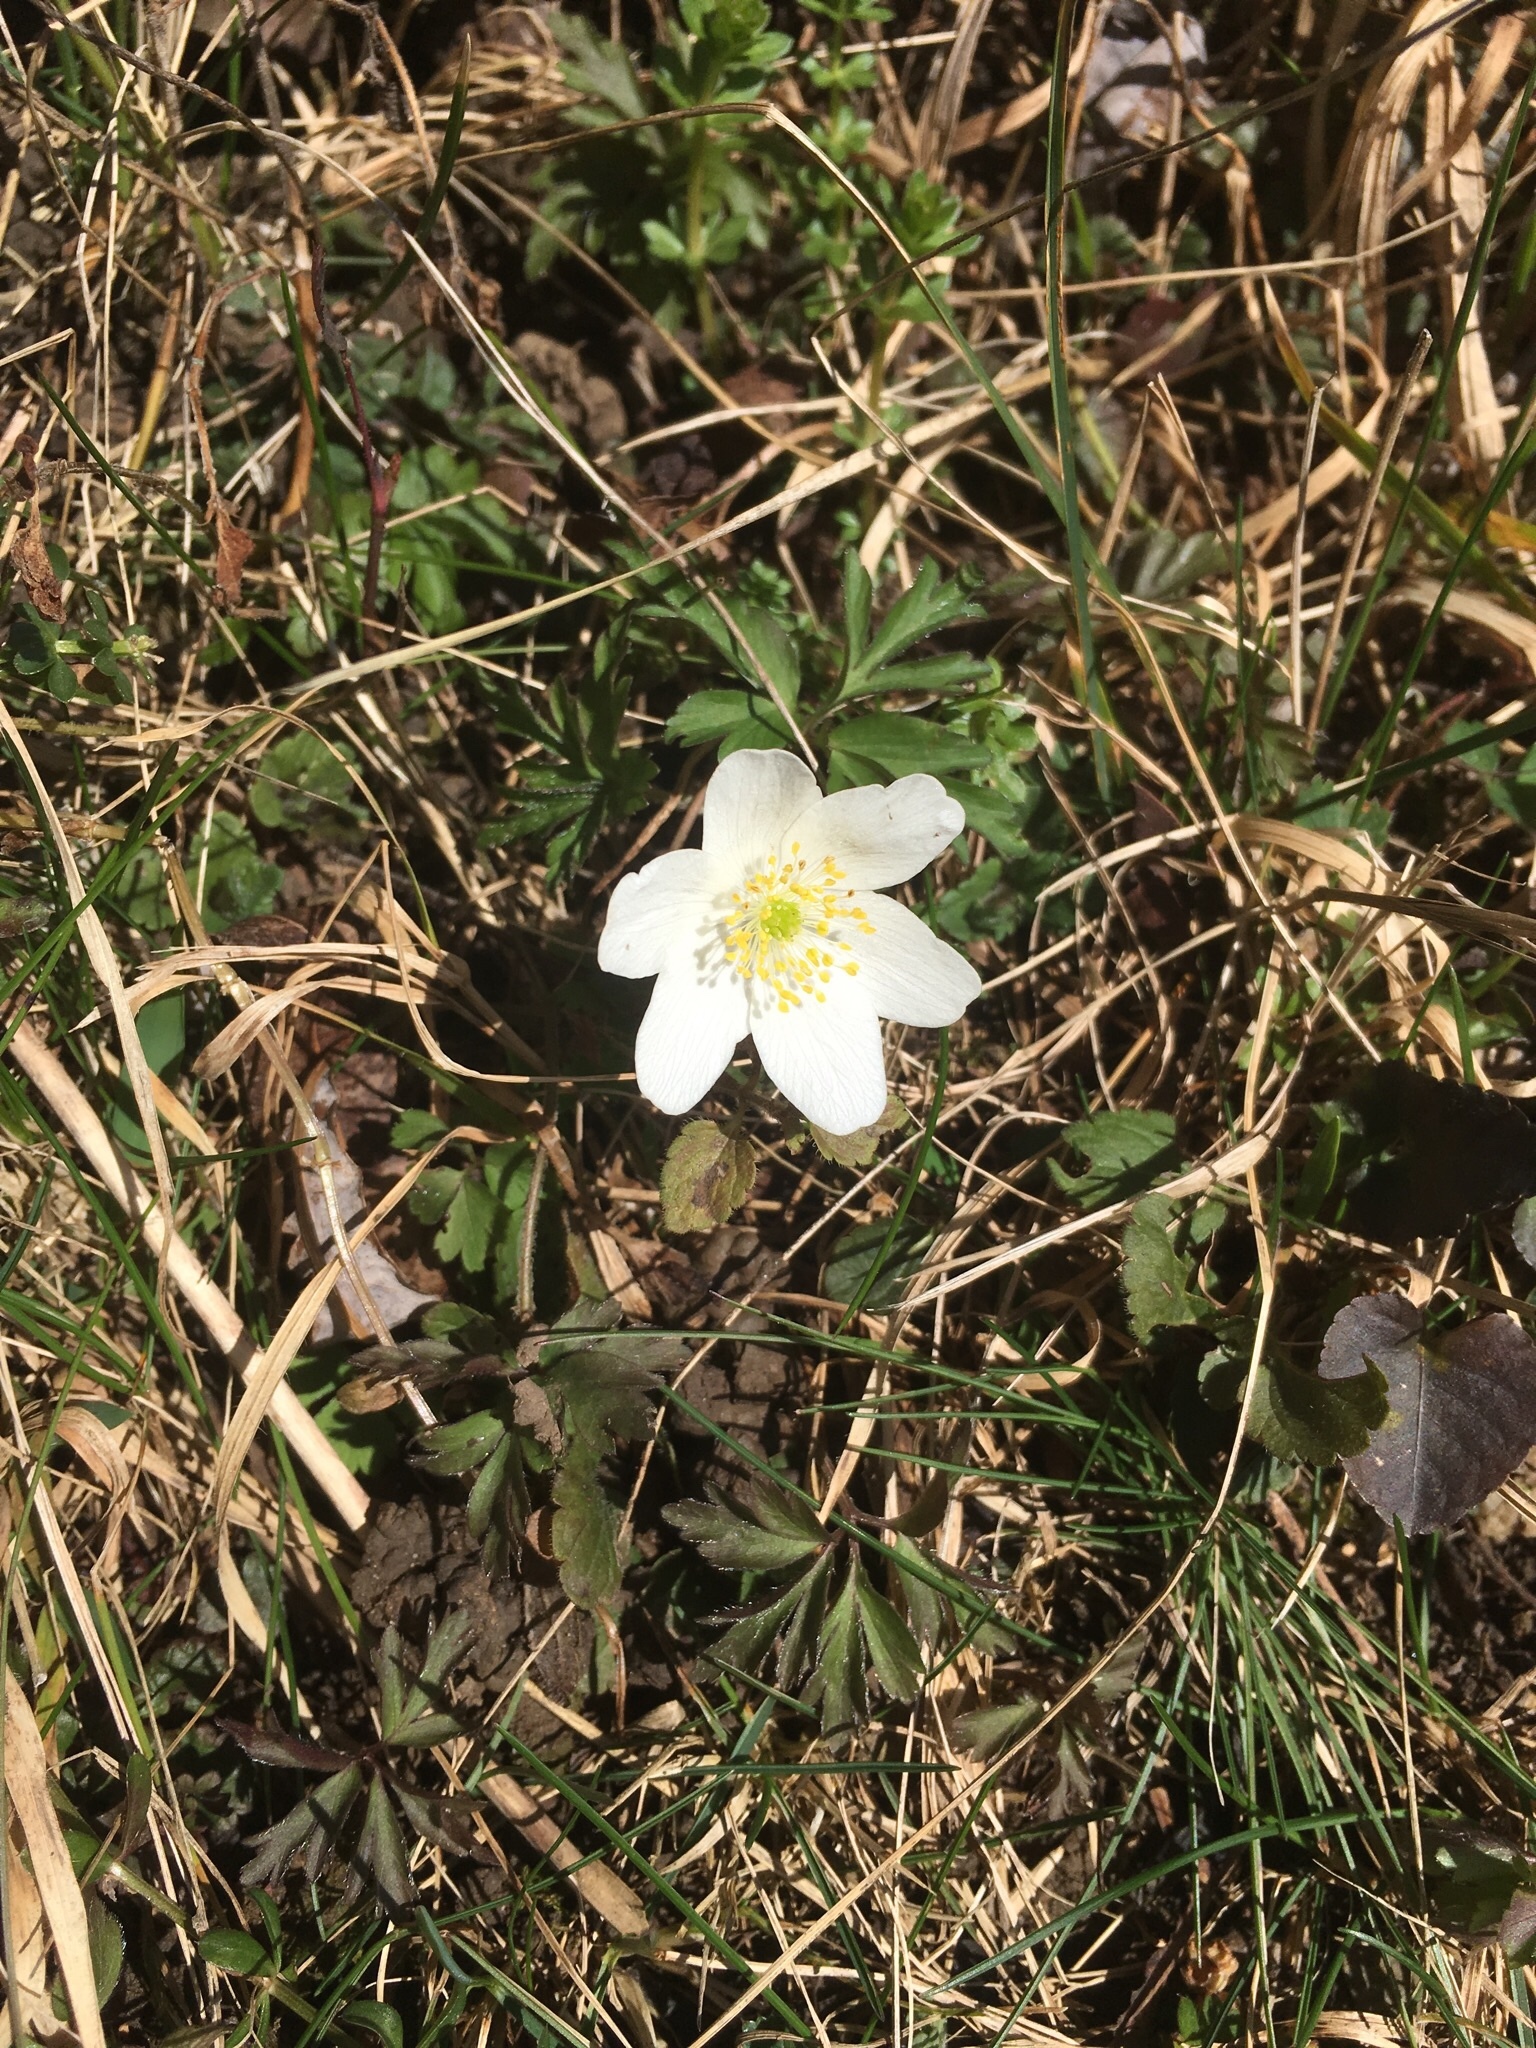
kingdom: Plantae
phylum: Tracheophyta
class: Magnoliopsida
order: Ranunculales
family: Ranunculaceae
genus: Anemone
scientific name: Anemone nemorosa
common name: Wood anemone
